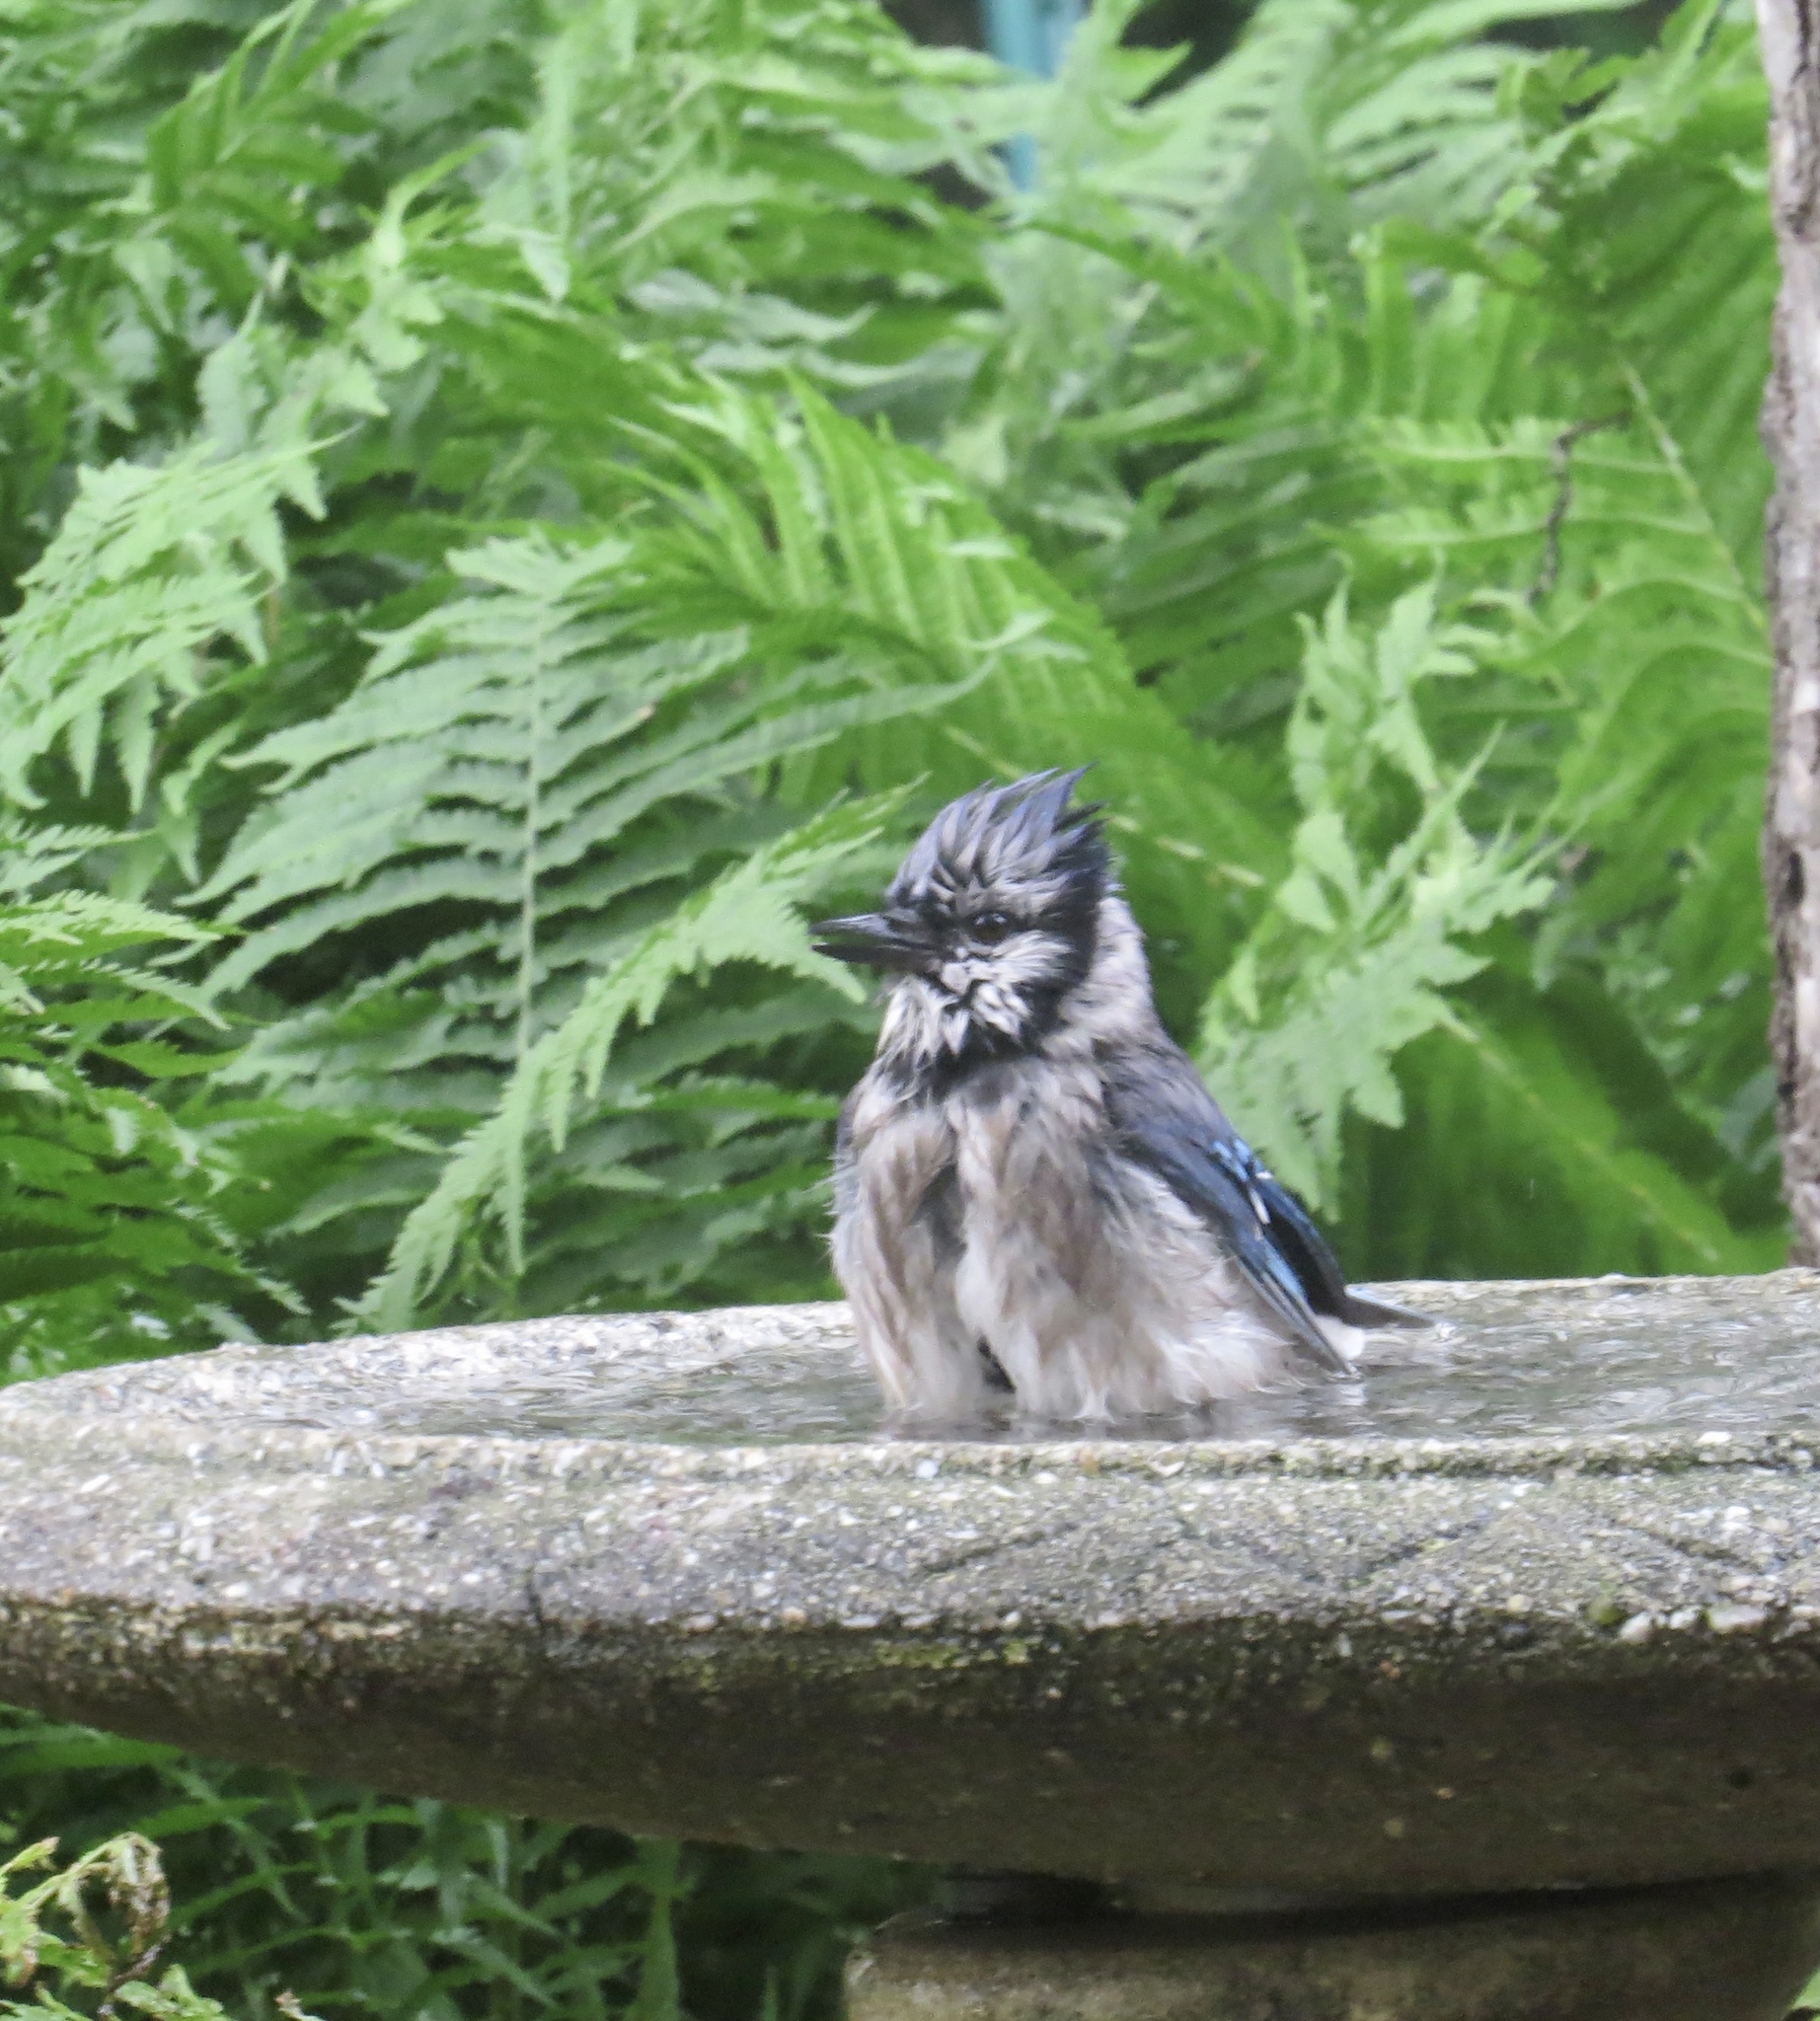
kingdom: Animalia
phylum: Chordata
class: Aves
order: Passeriformes
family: Corvidae
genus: Cyanocitta
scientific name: Cyanocitta cristata
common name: Blue jay
